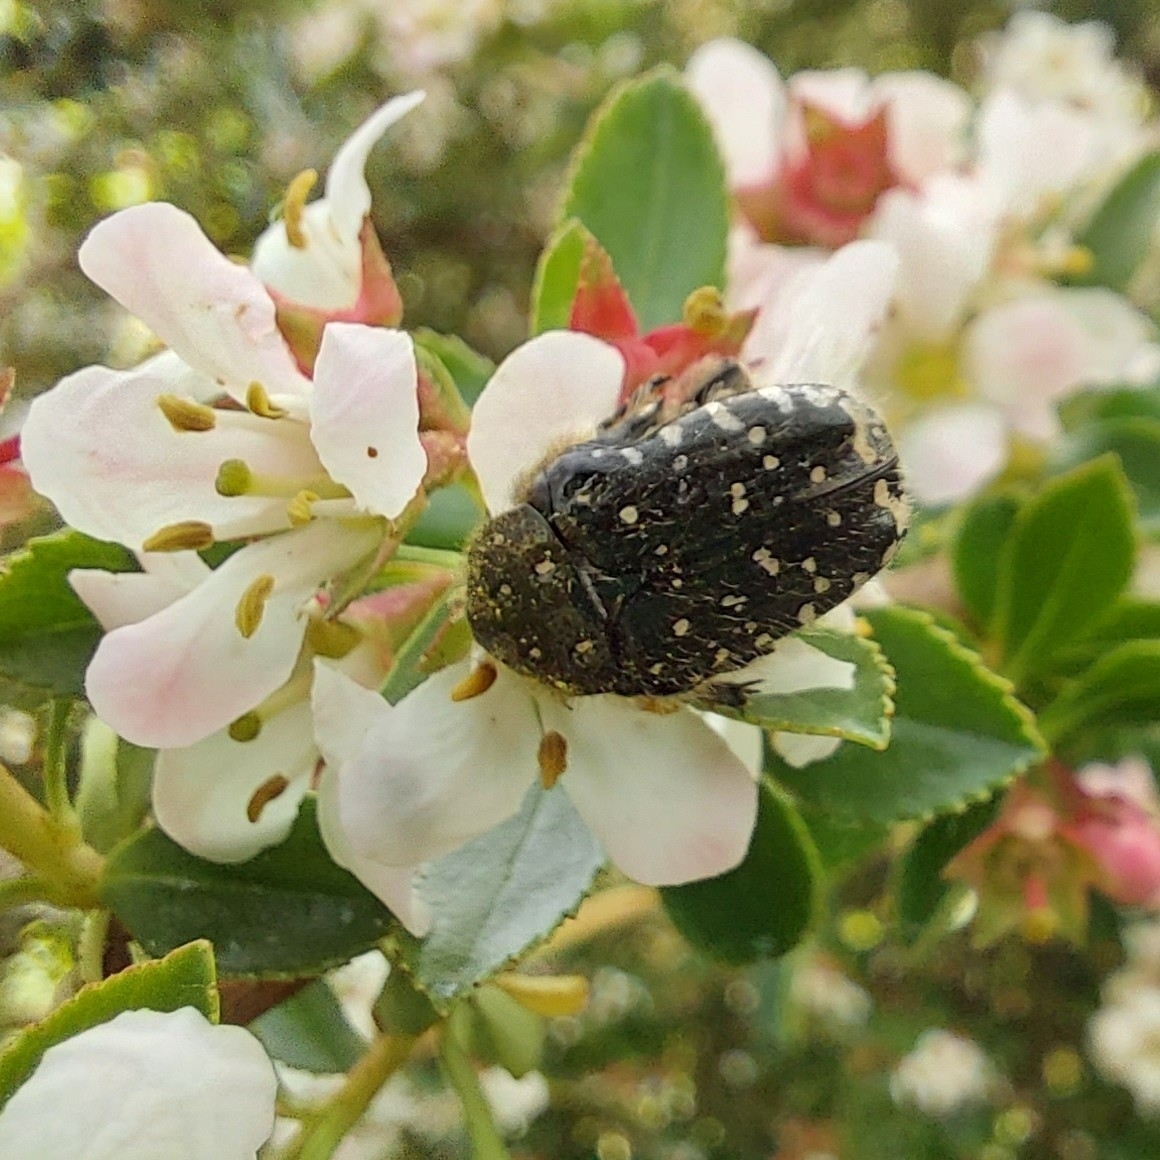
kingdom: Animalia
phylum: Arthropoda
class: Insecta
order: Coleoptera
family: Scarabaeidae
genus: Oxythyrea
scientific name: Oxythyrea funesta
